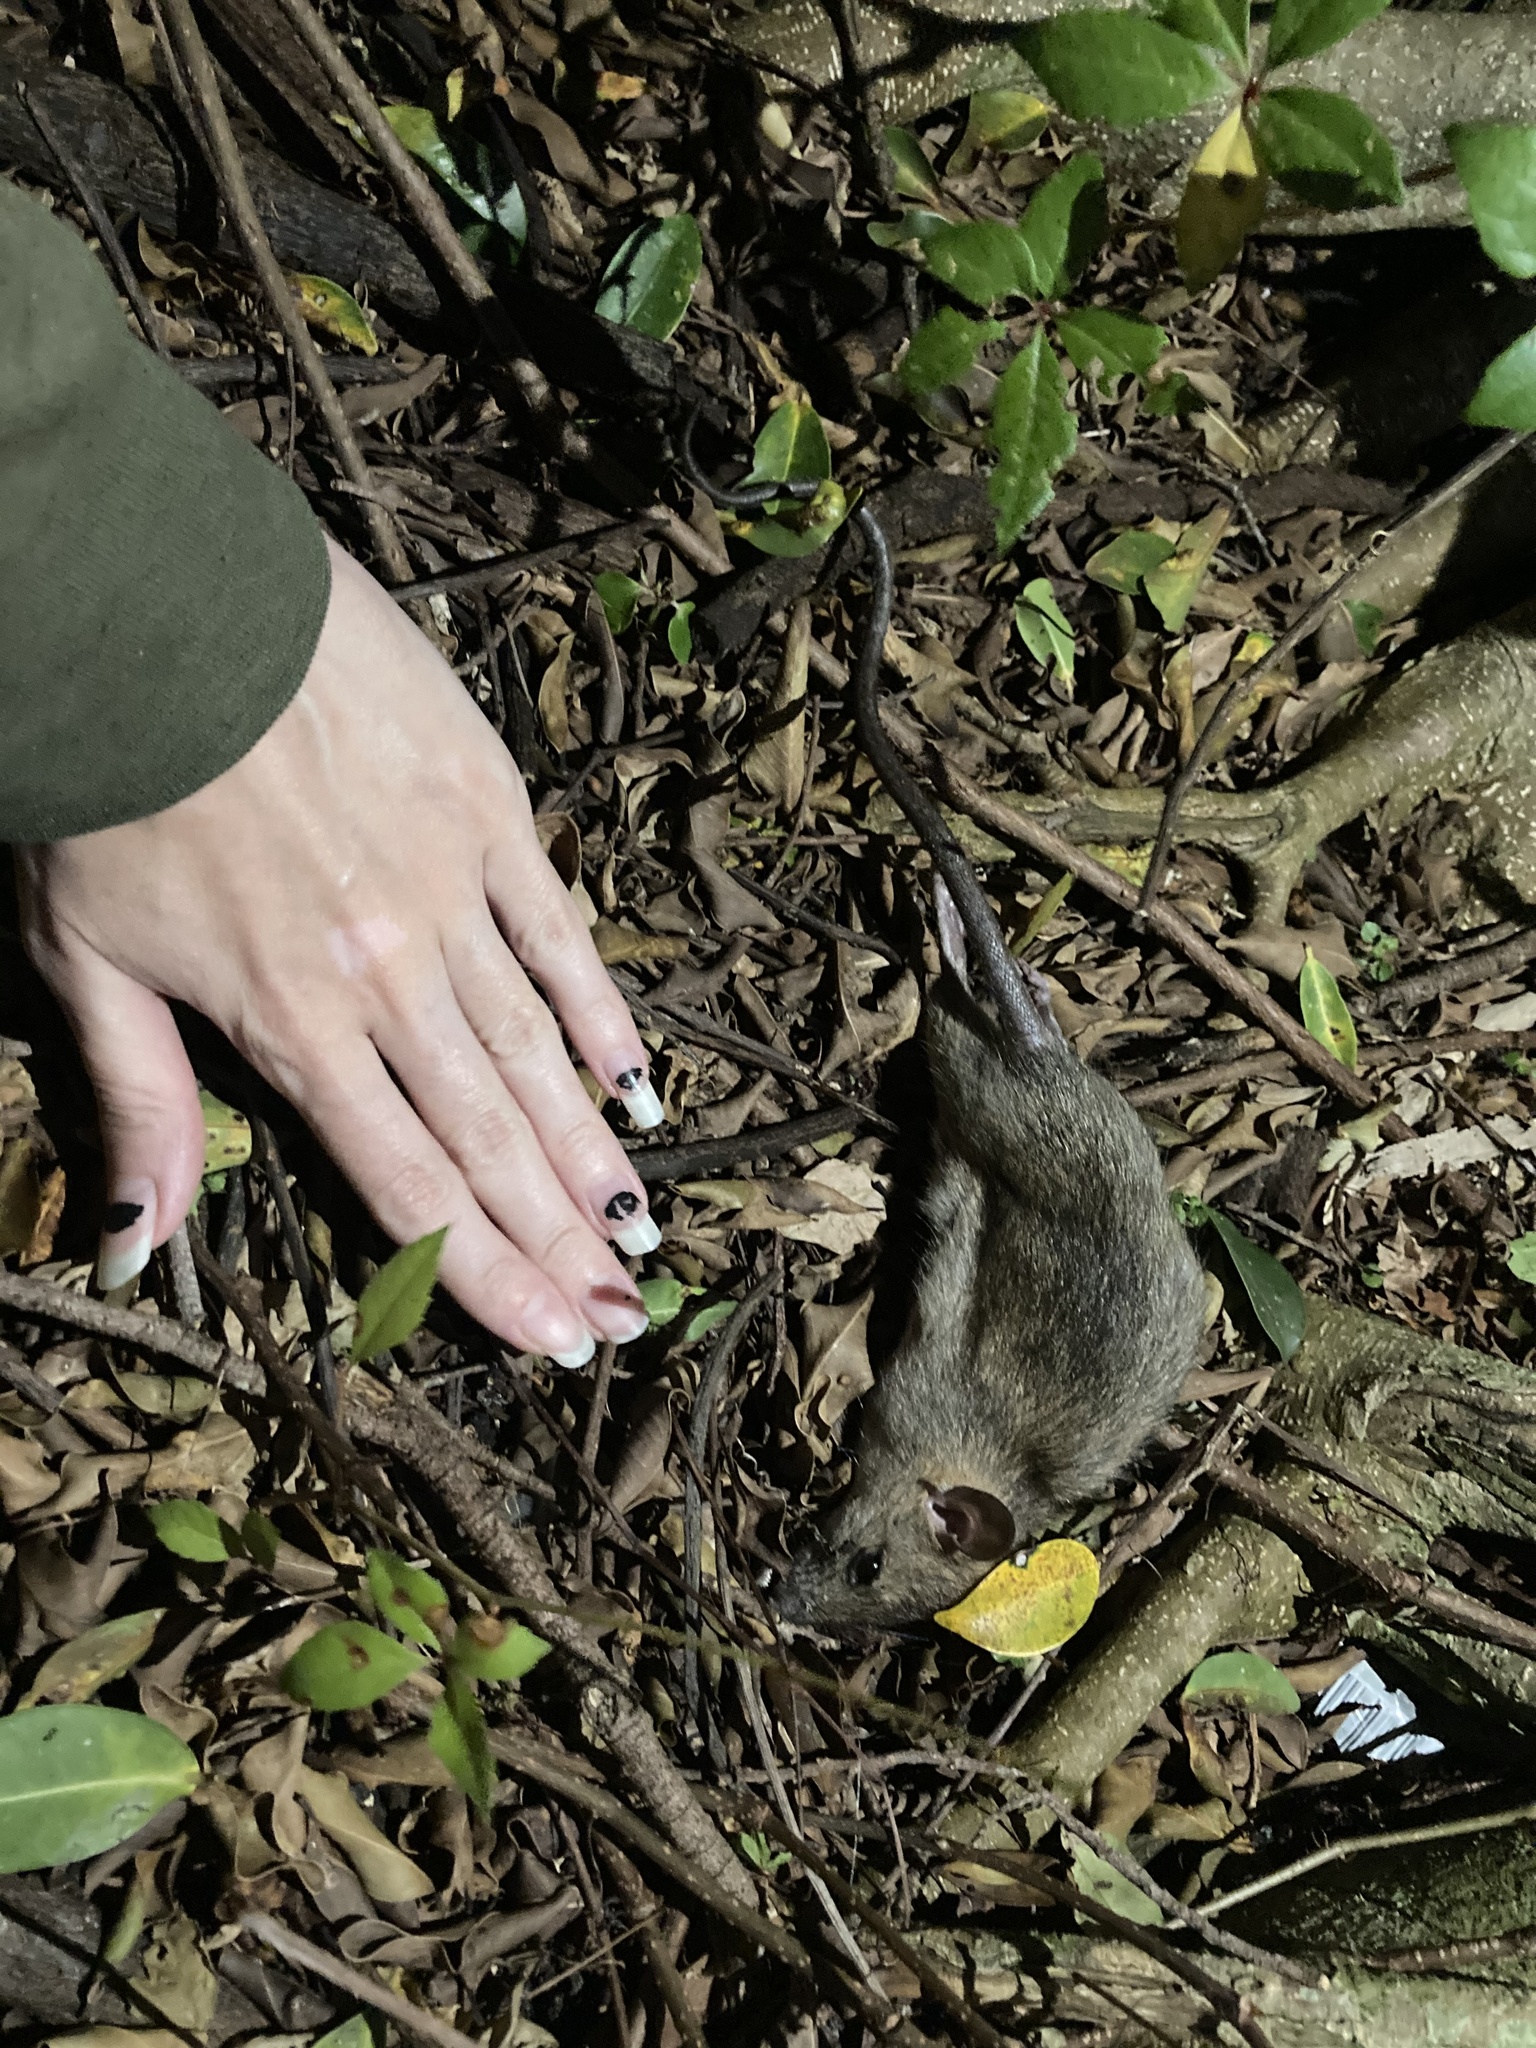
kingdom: Animalia
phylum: Chordata
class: Mammalia
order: Rodentia
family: Muridae
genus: Rattus
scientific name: Rattus rattus
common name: Black rat
